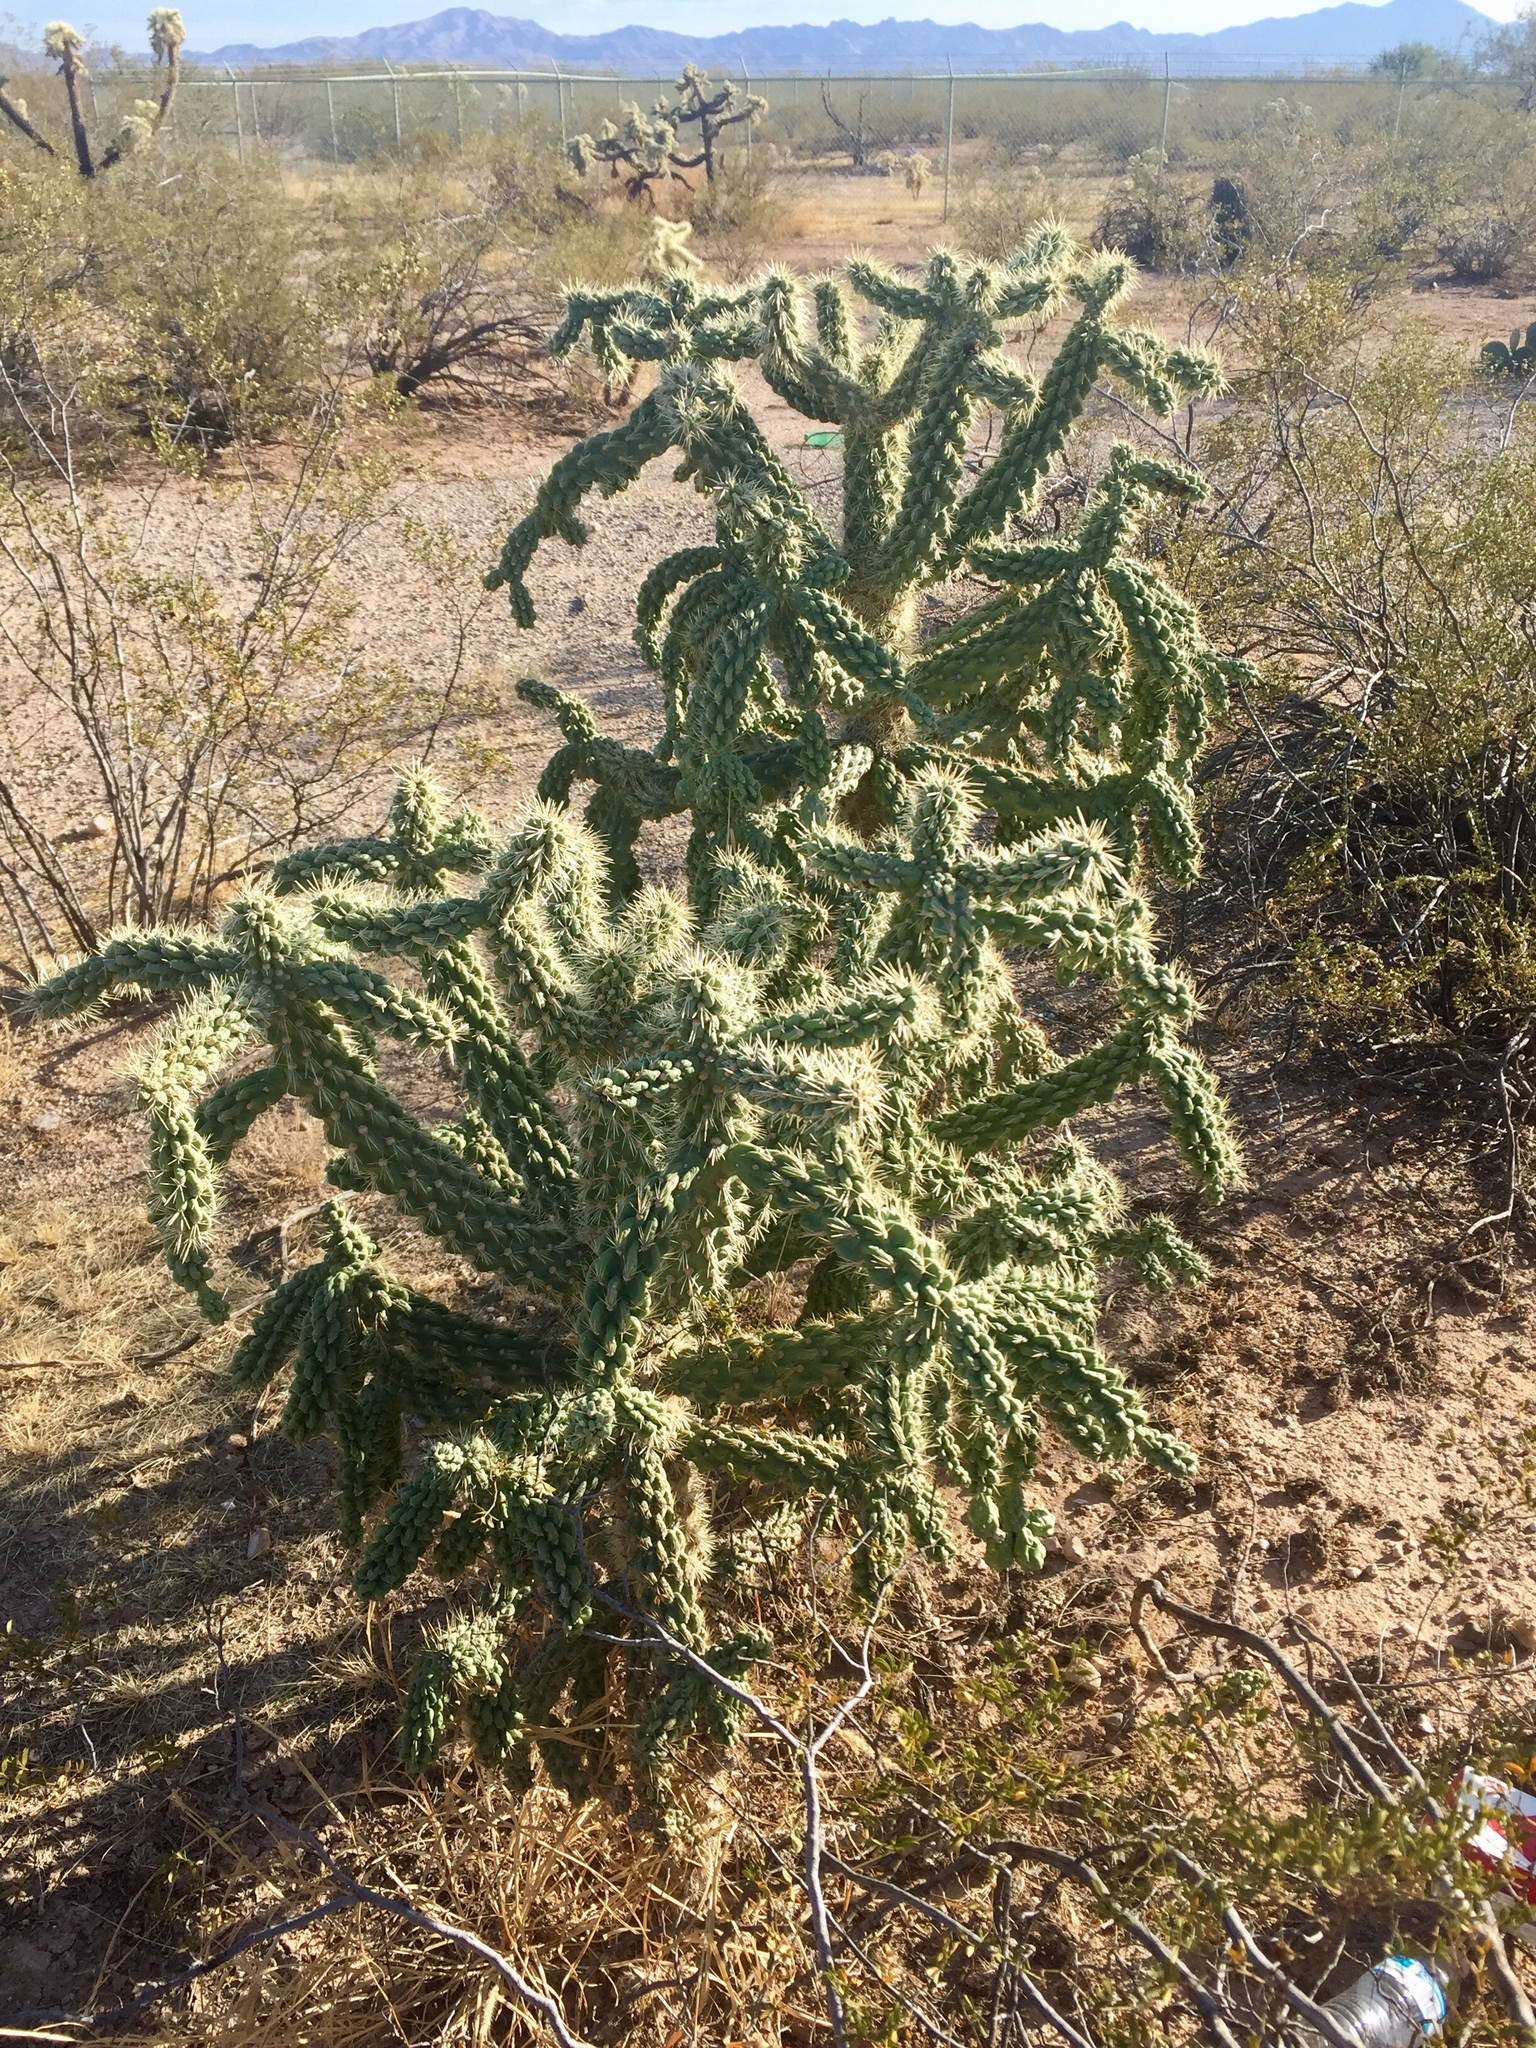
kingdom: Plantae
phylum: Tracheophyta
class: Magnoliopsida
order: Caryophyllales
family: Cactaceae
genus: Cylindropuntia
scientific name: Cylindropuntia imbricata
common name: Candelabrum cactus
